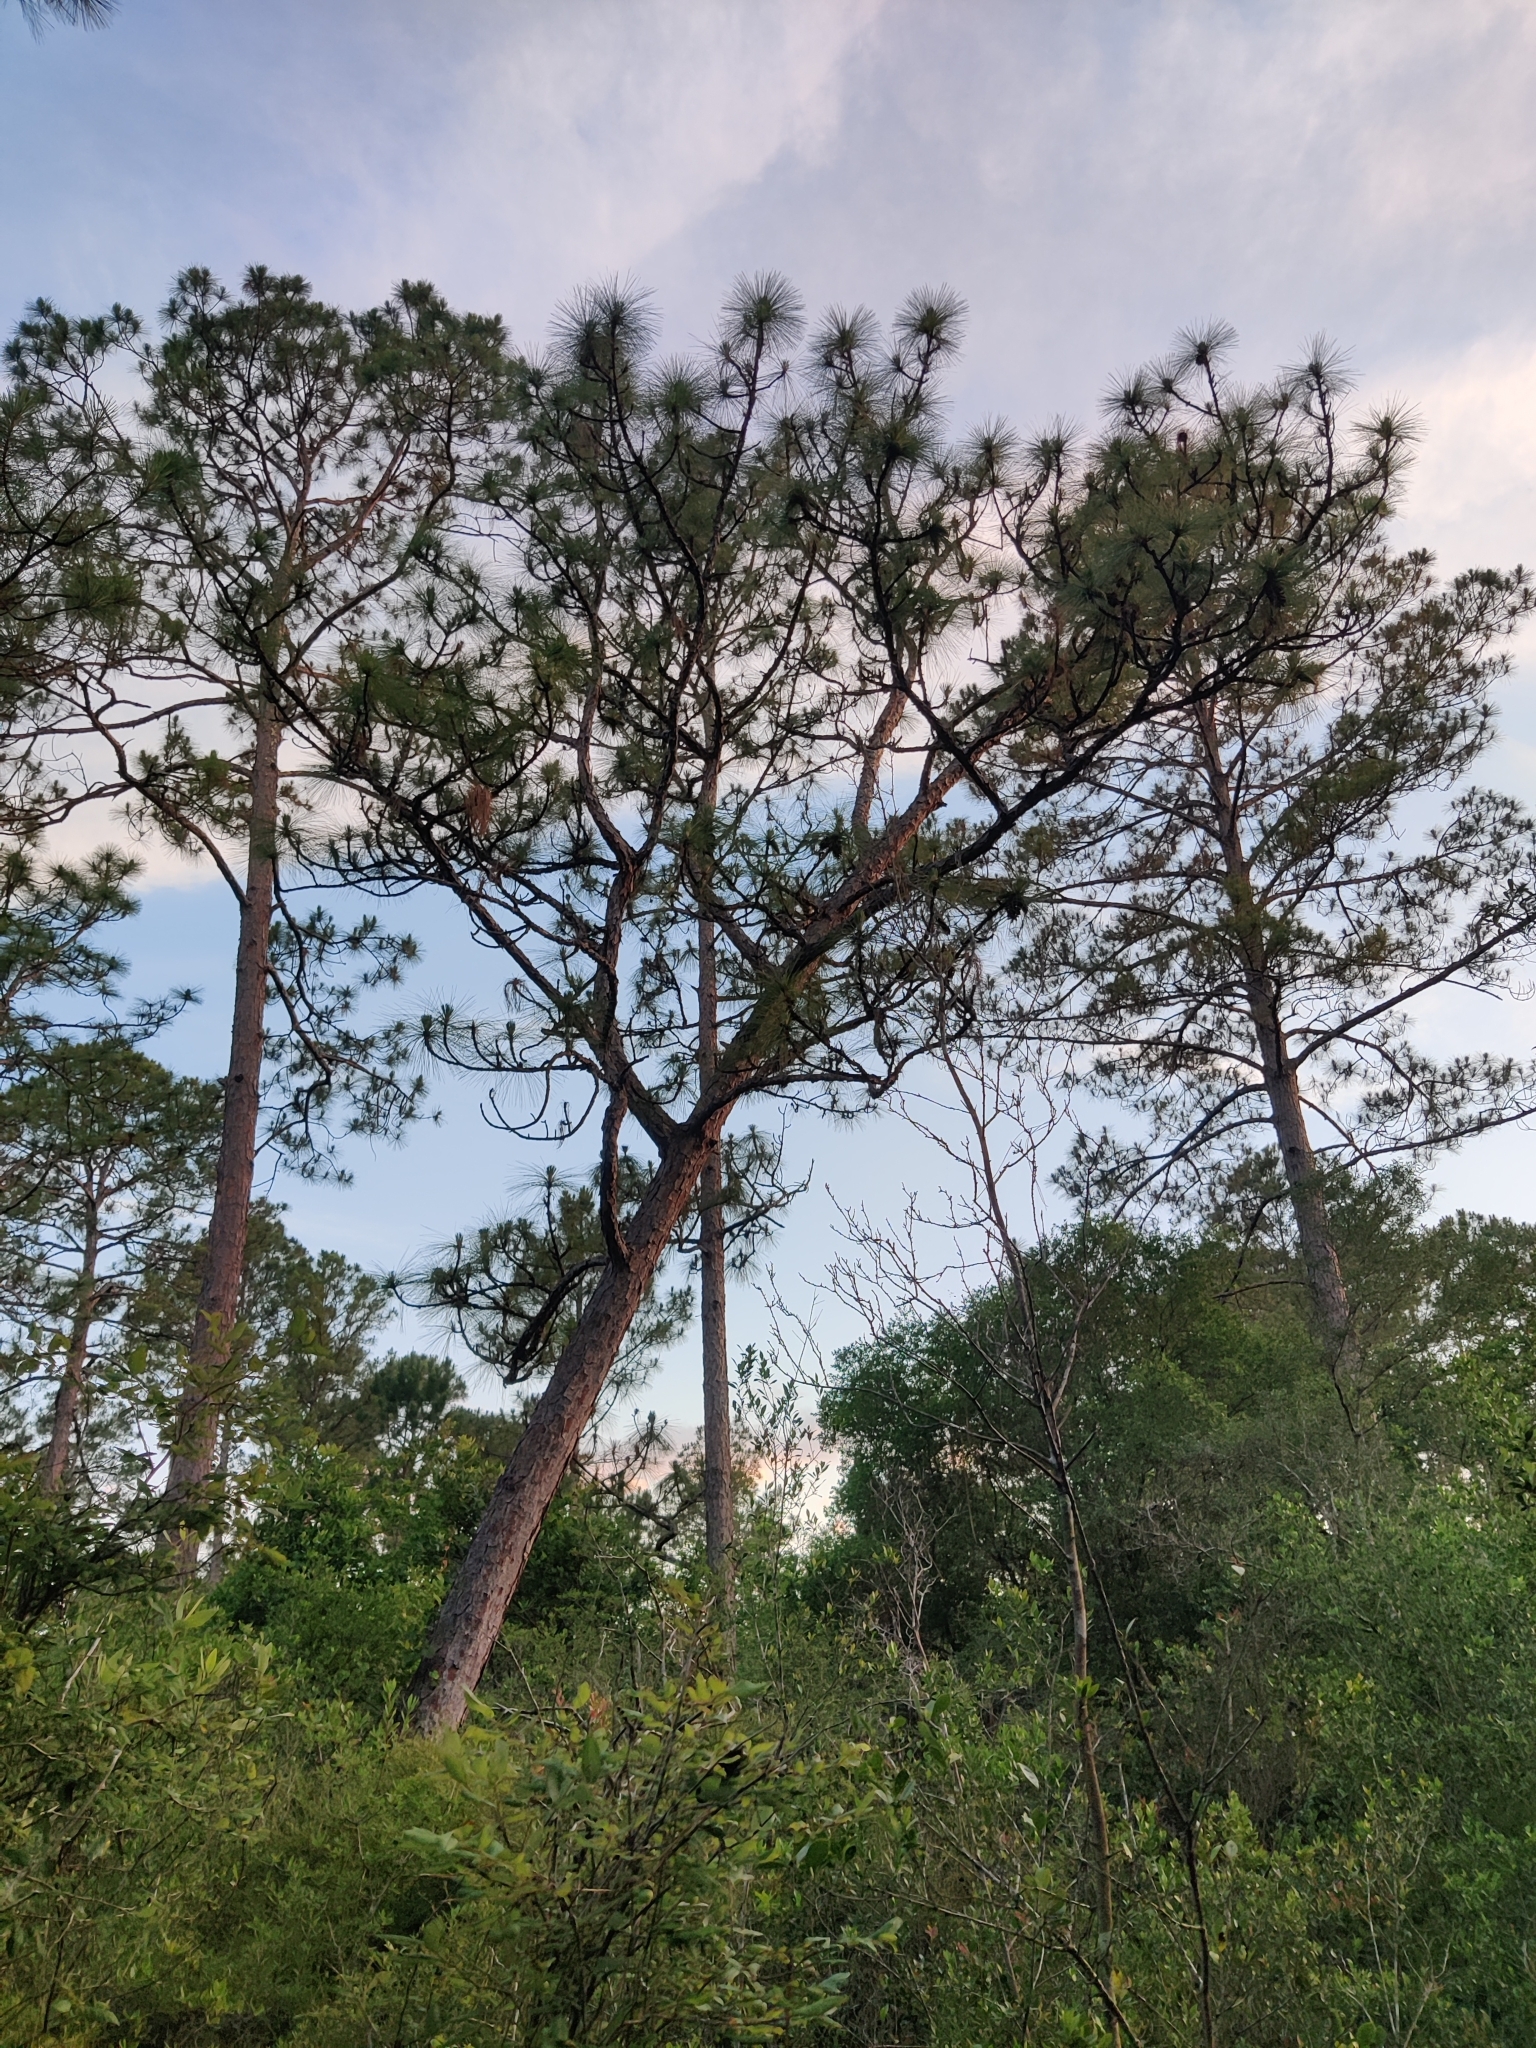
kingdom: Plantae
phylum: Tracheophyta
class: Pinopsida
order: Pinales
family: Pinaceae
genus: Pinus
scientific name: Pinus palustris
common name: Longleaf pine
